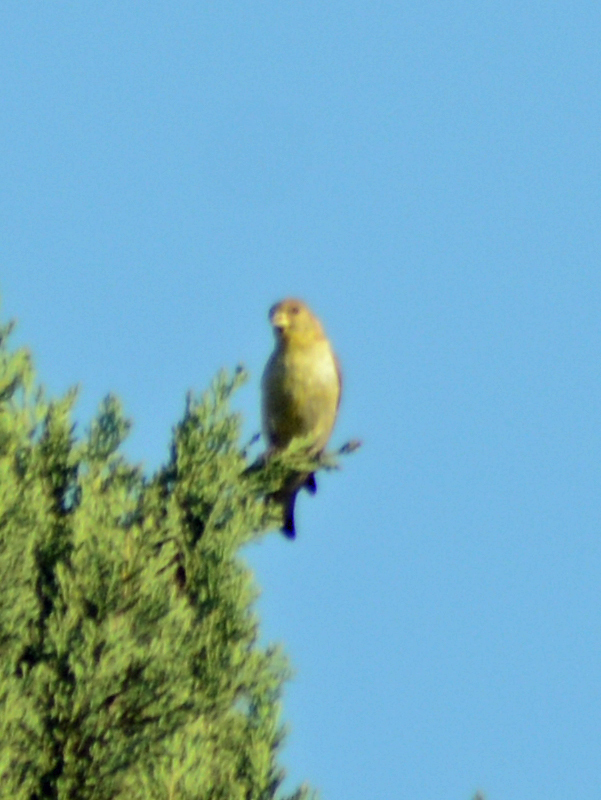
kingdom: Animalia
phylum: Chordata
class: Aves
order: Passeriformes
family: Fringillidae
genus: Spinus
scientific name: Spinus psaltria
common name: Lesser goldfinch
